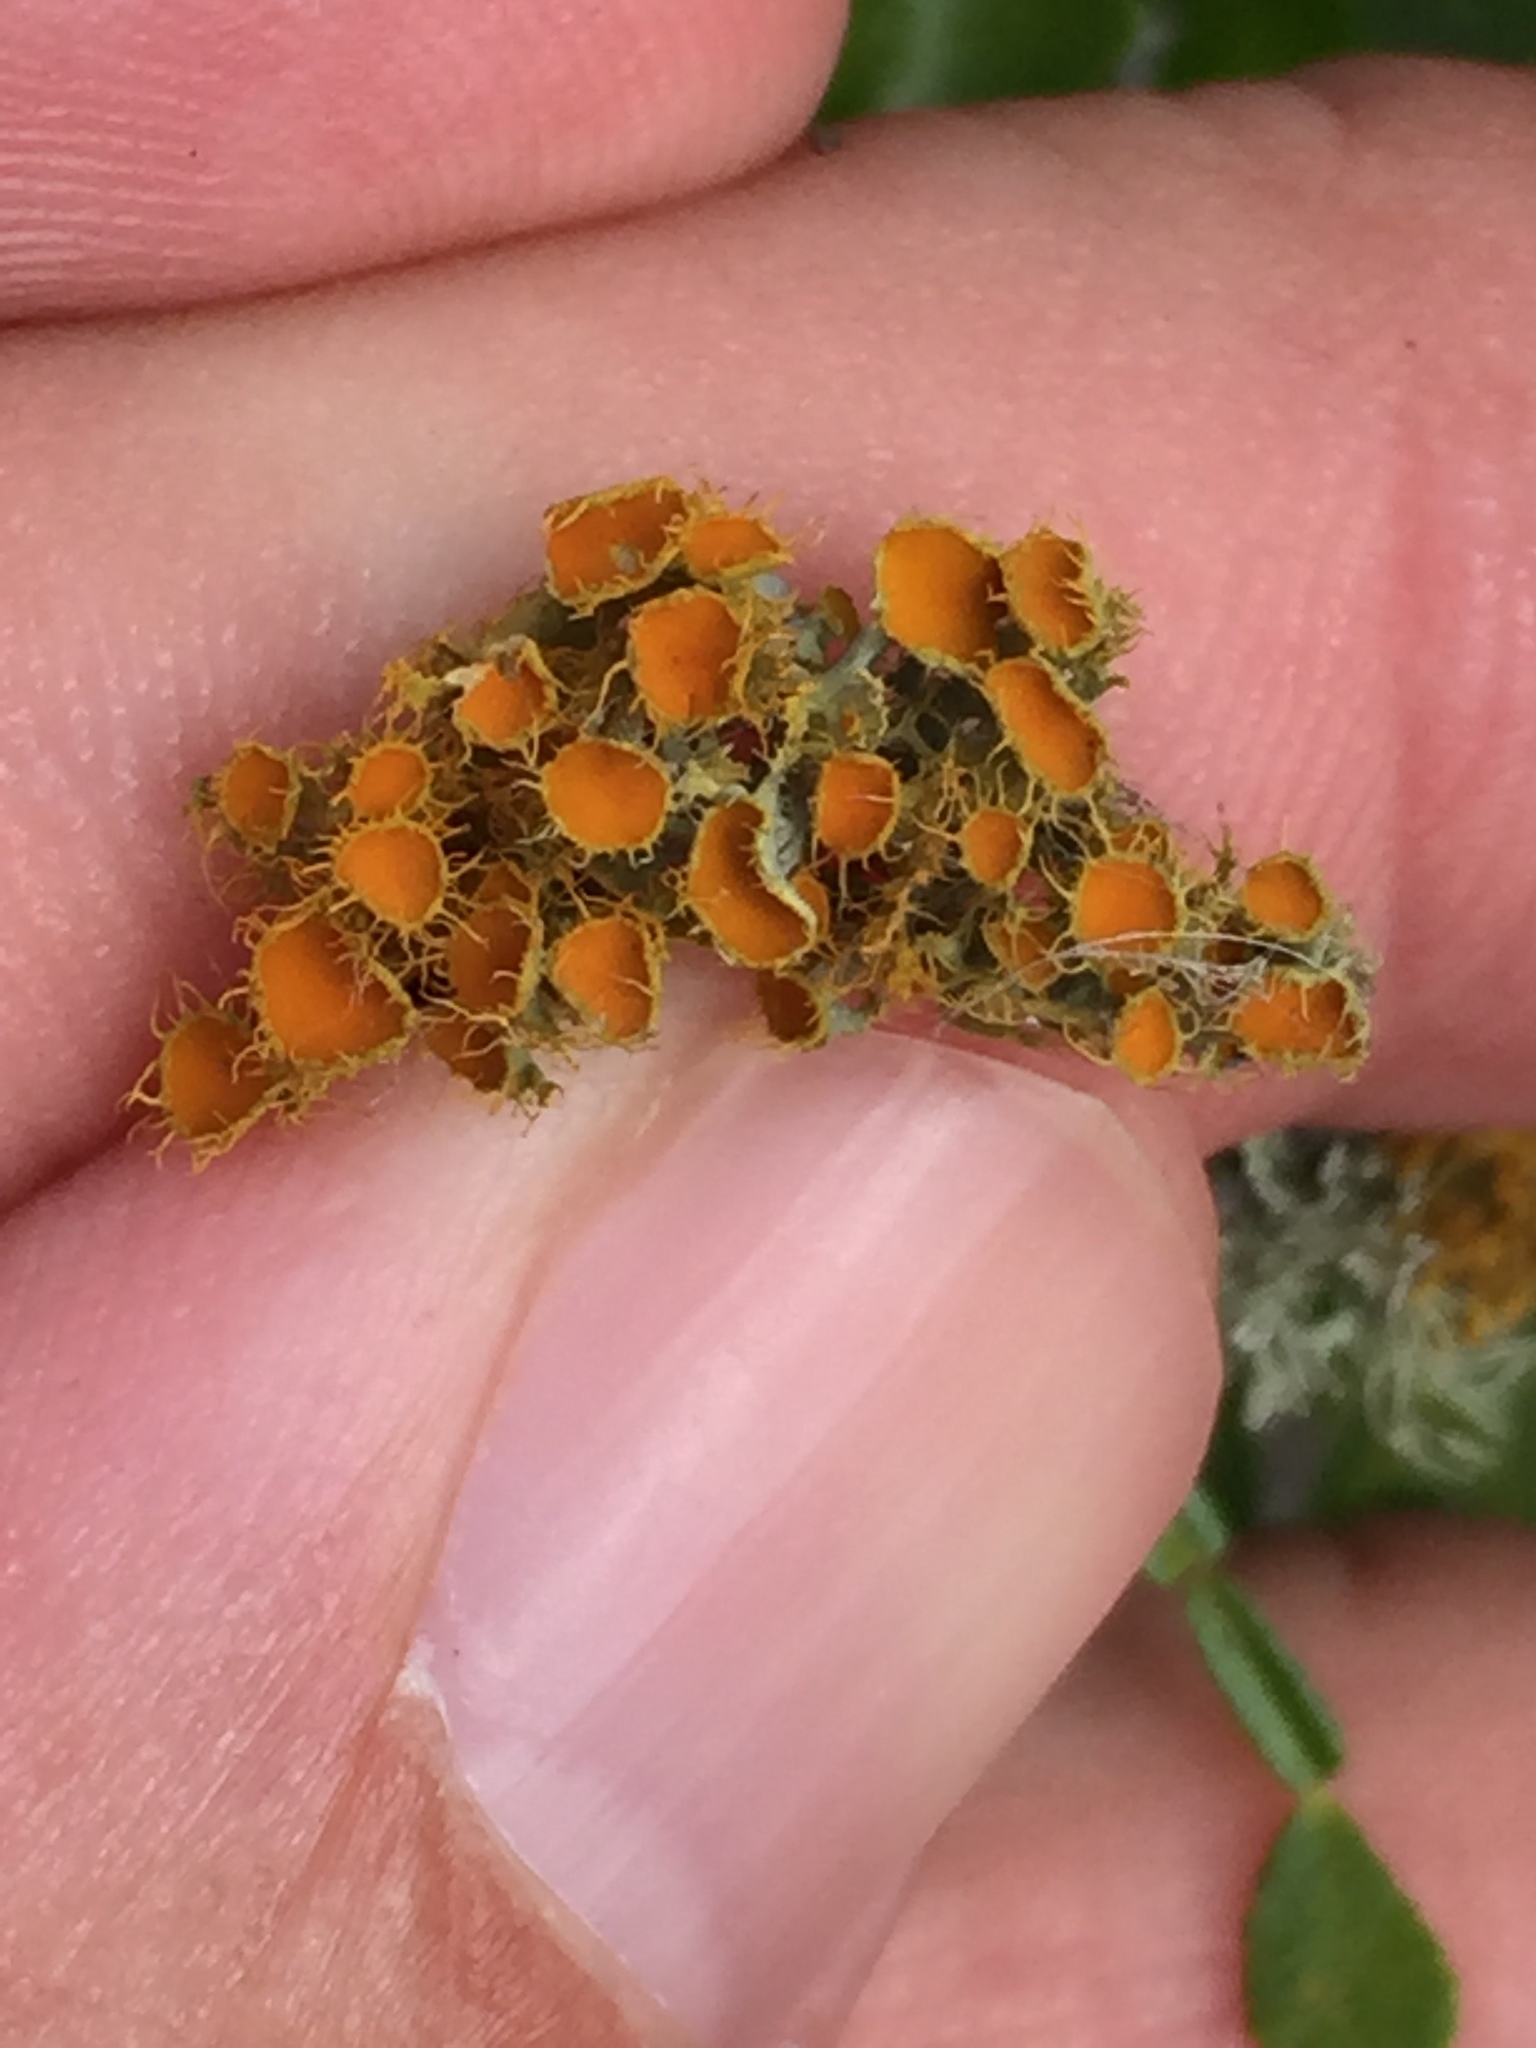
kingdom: Fungi
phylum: Ascomycota
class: Lecanoromycetes
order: Teloschistales
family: Teloschistaceae
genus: Niorma
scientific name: Niorma chrysophthalma
